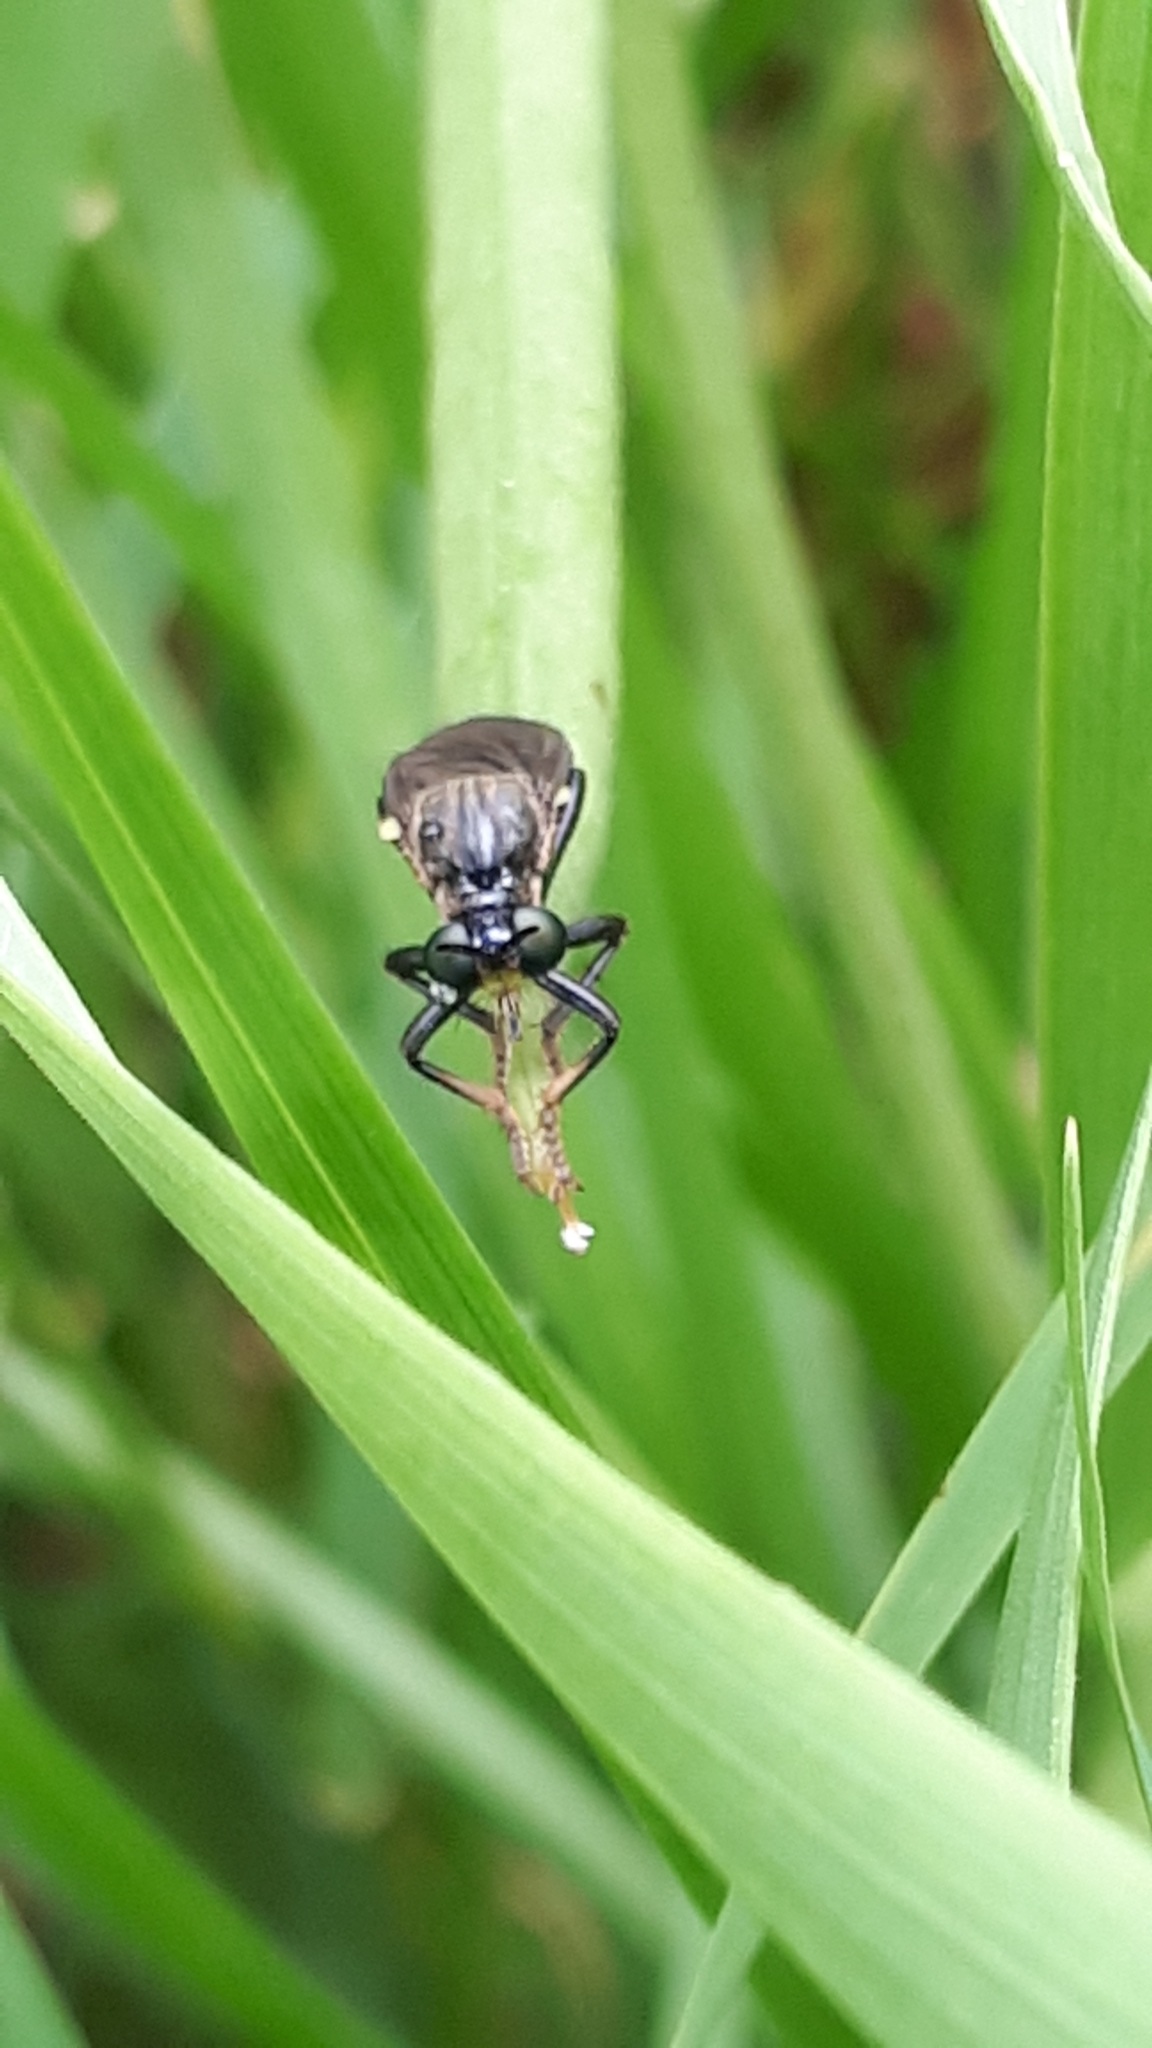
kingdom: Animalia
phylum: Arthropoda
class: Insecta
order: Diptera
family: Asilidae
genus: Dioctria
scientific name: Dioctria atricapilla
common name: Violet black-legged
